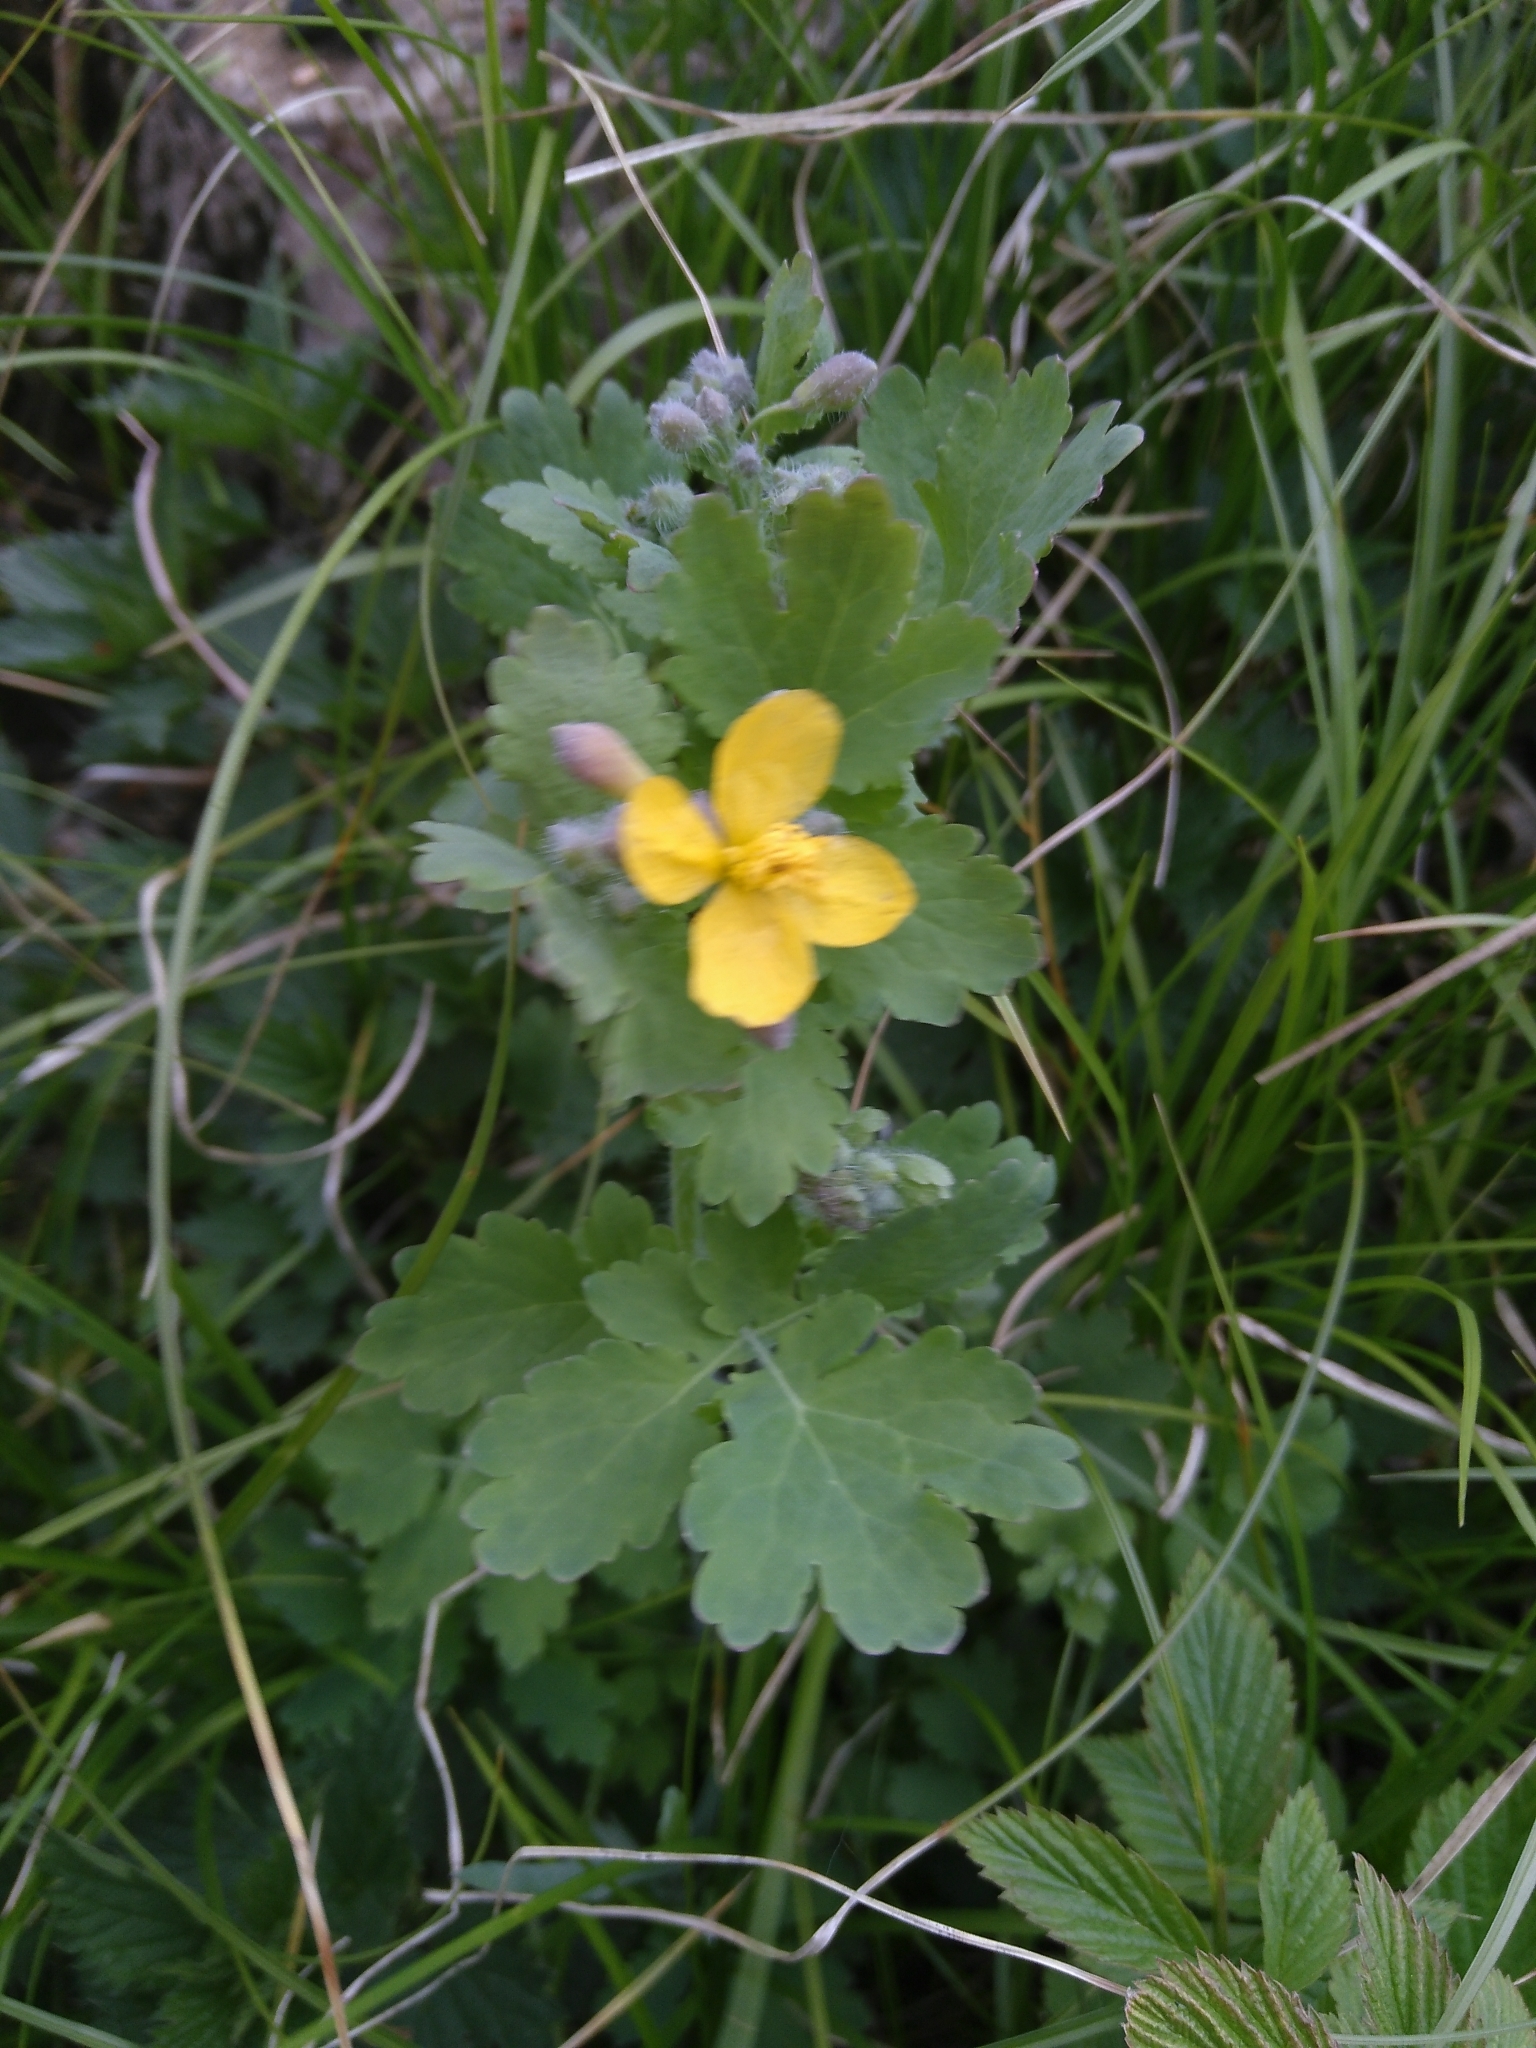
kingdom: Plantae
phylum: Tracheophyta
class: Magnoliopsida
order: Ranunculales
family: Papaveraceae
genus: Chelidonium
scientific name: Chelidonium majus
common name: Greater celandine
